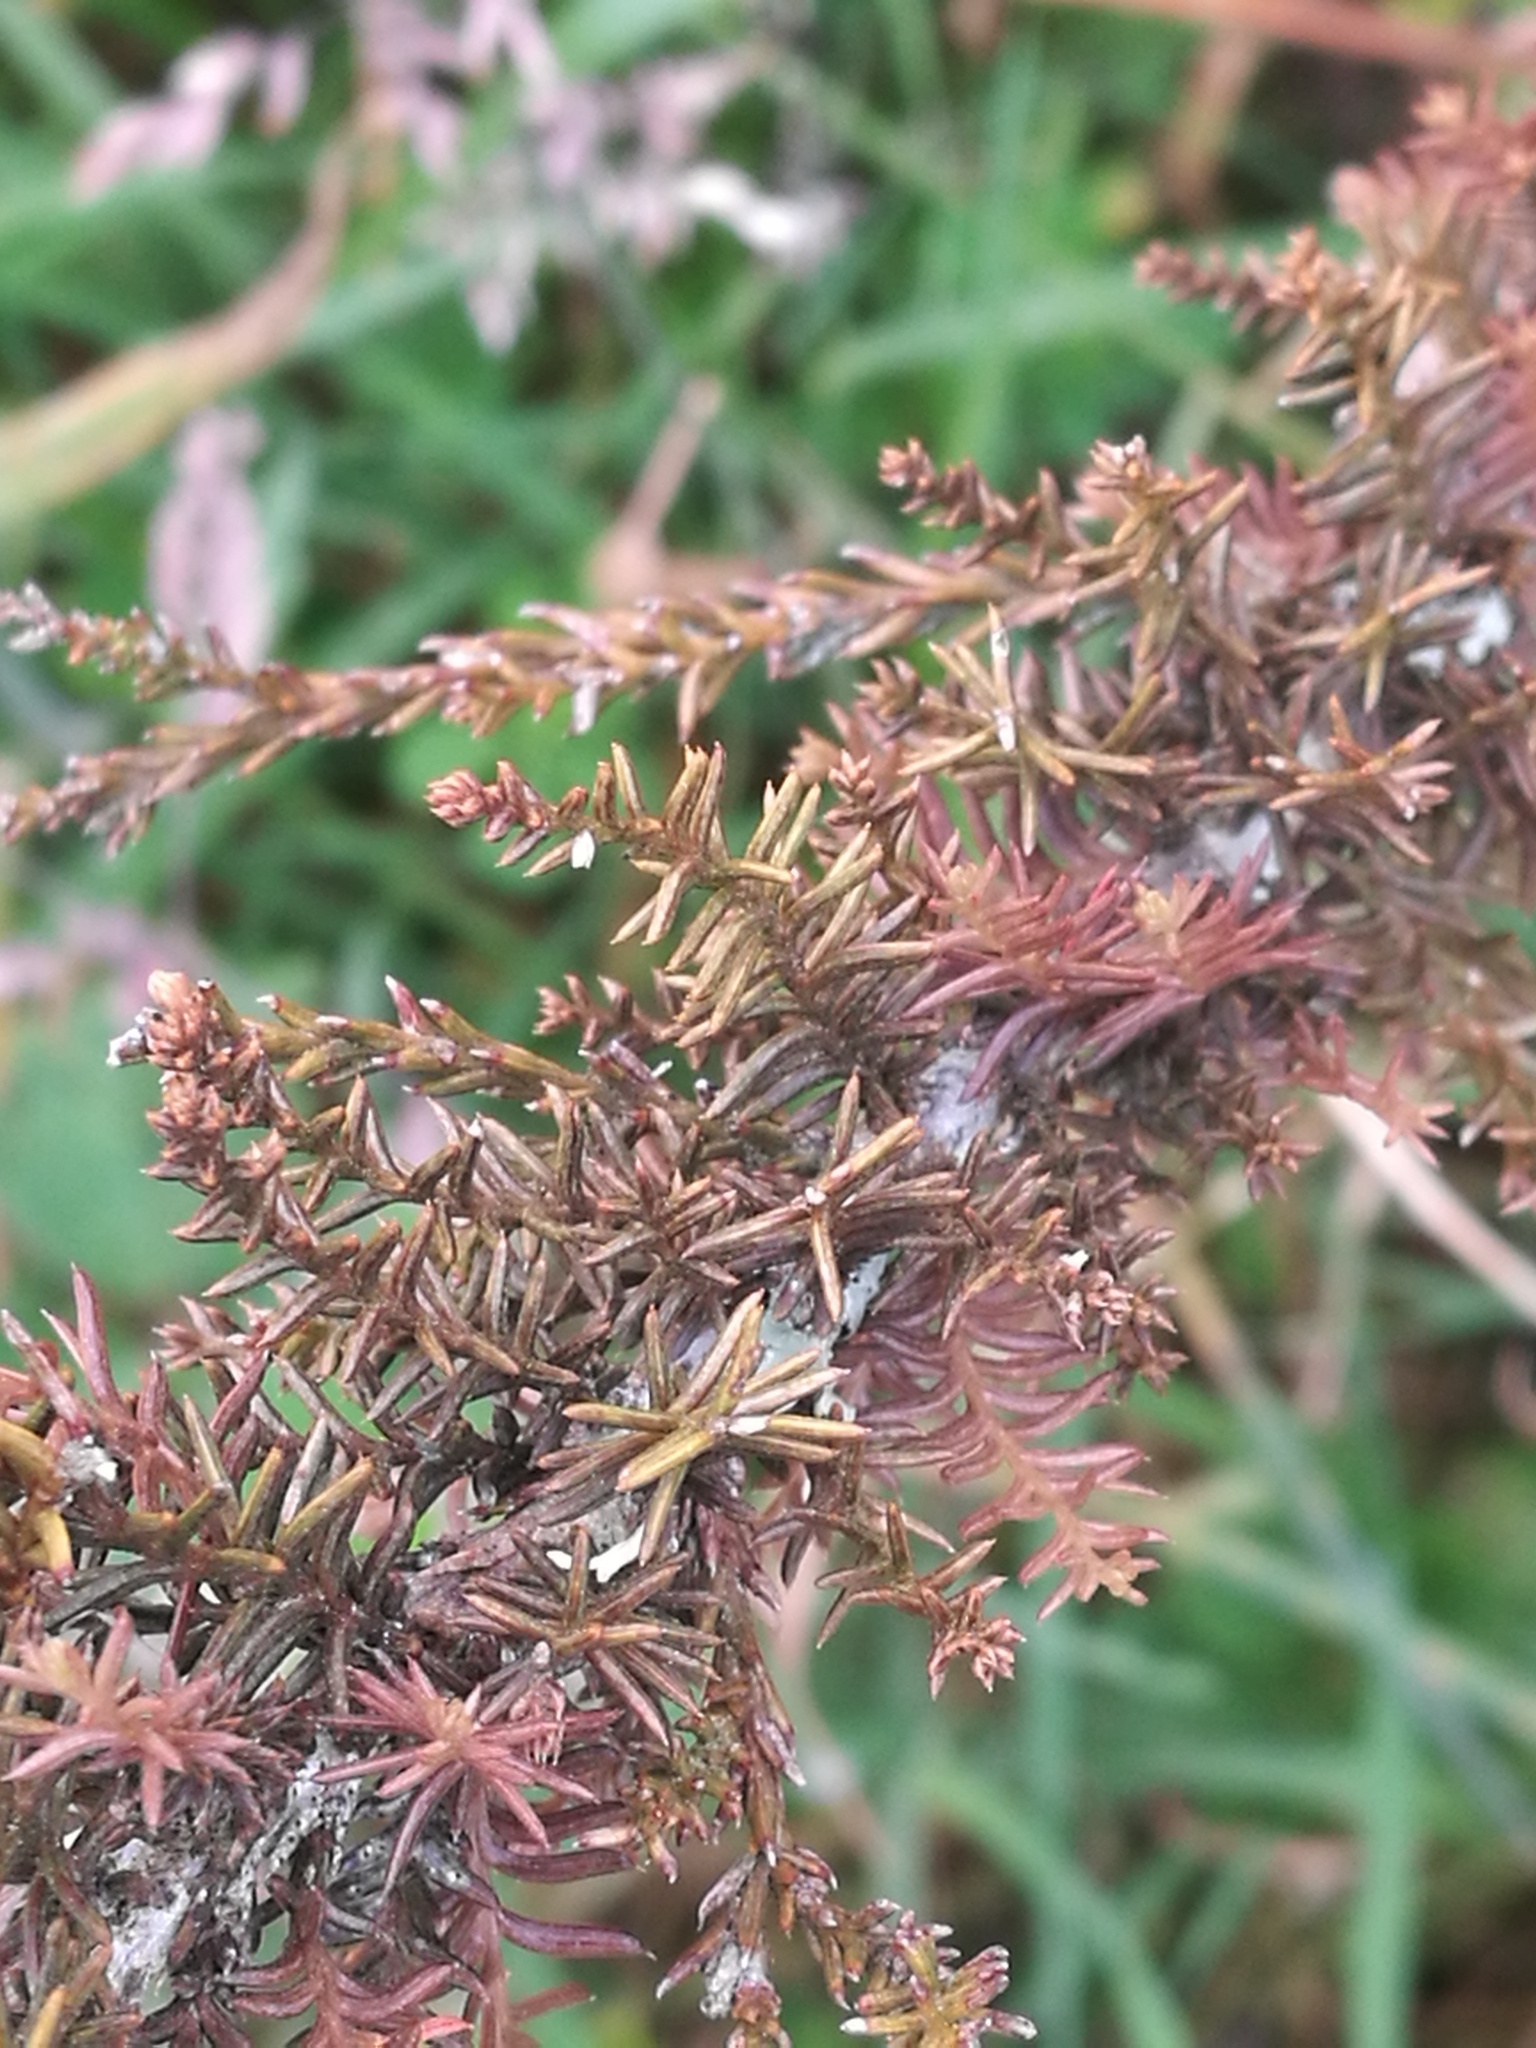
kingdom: Plantae
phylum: Tracheophyta
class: Pinopsida
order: Pinales
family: Podocarpaceae
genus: Dacrycarpus
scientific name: Dacrycarpus dacrydioides
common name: White pine
